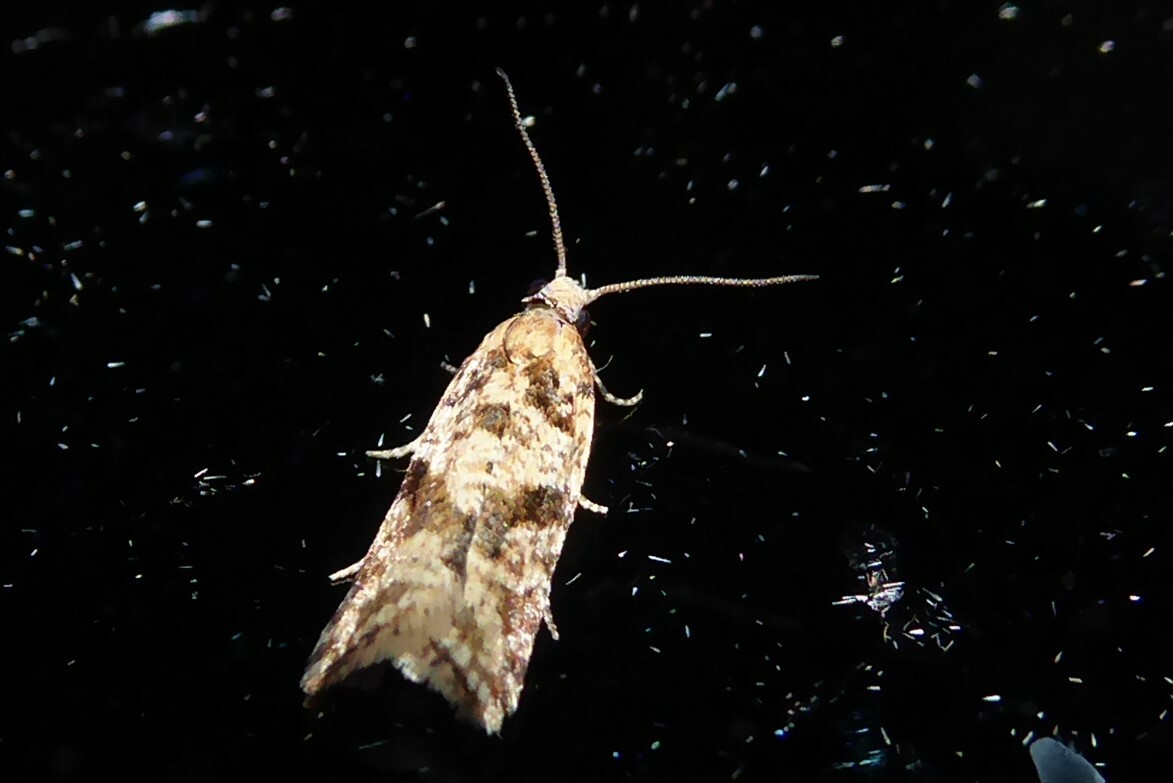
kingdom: Animalia
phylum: Arthropoda
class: Insecta
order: Lepidoptera
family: Tortricidae
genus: Capua
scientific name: Capua semiferana
